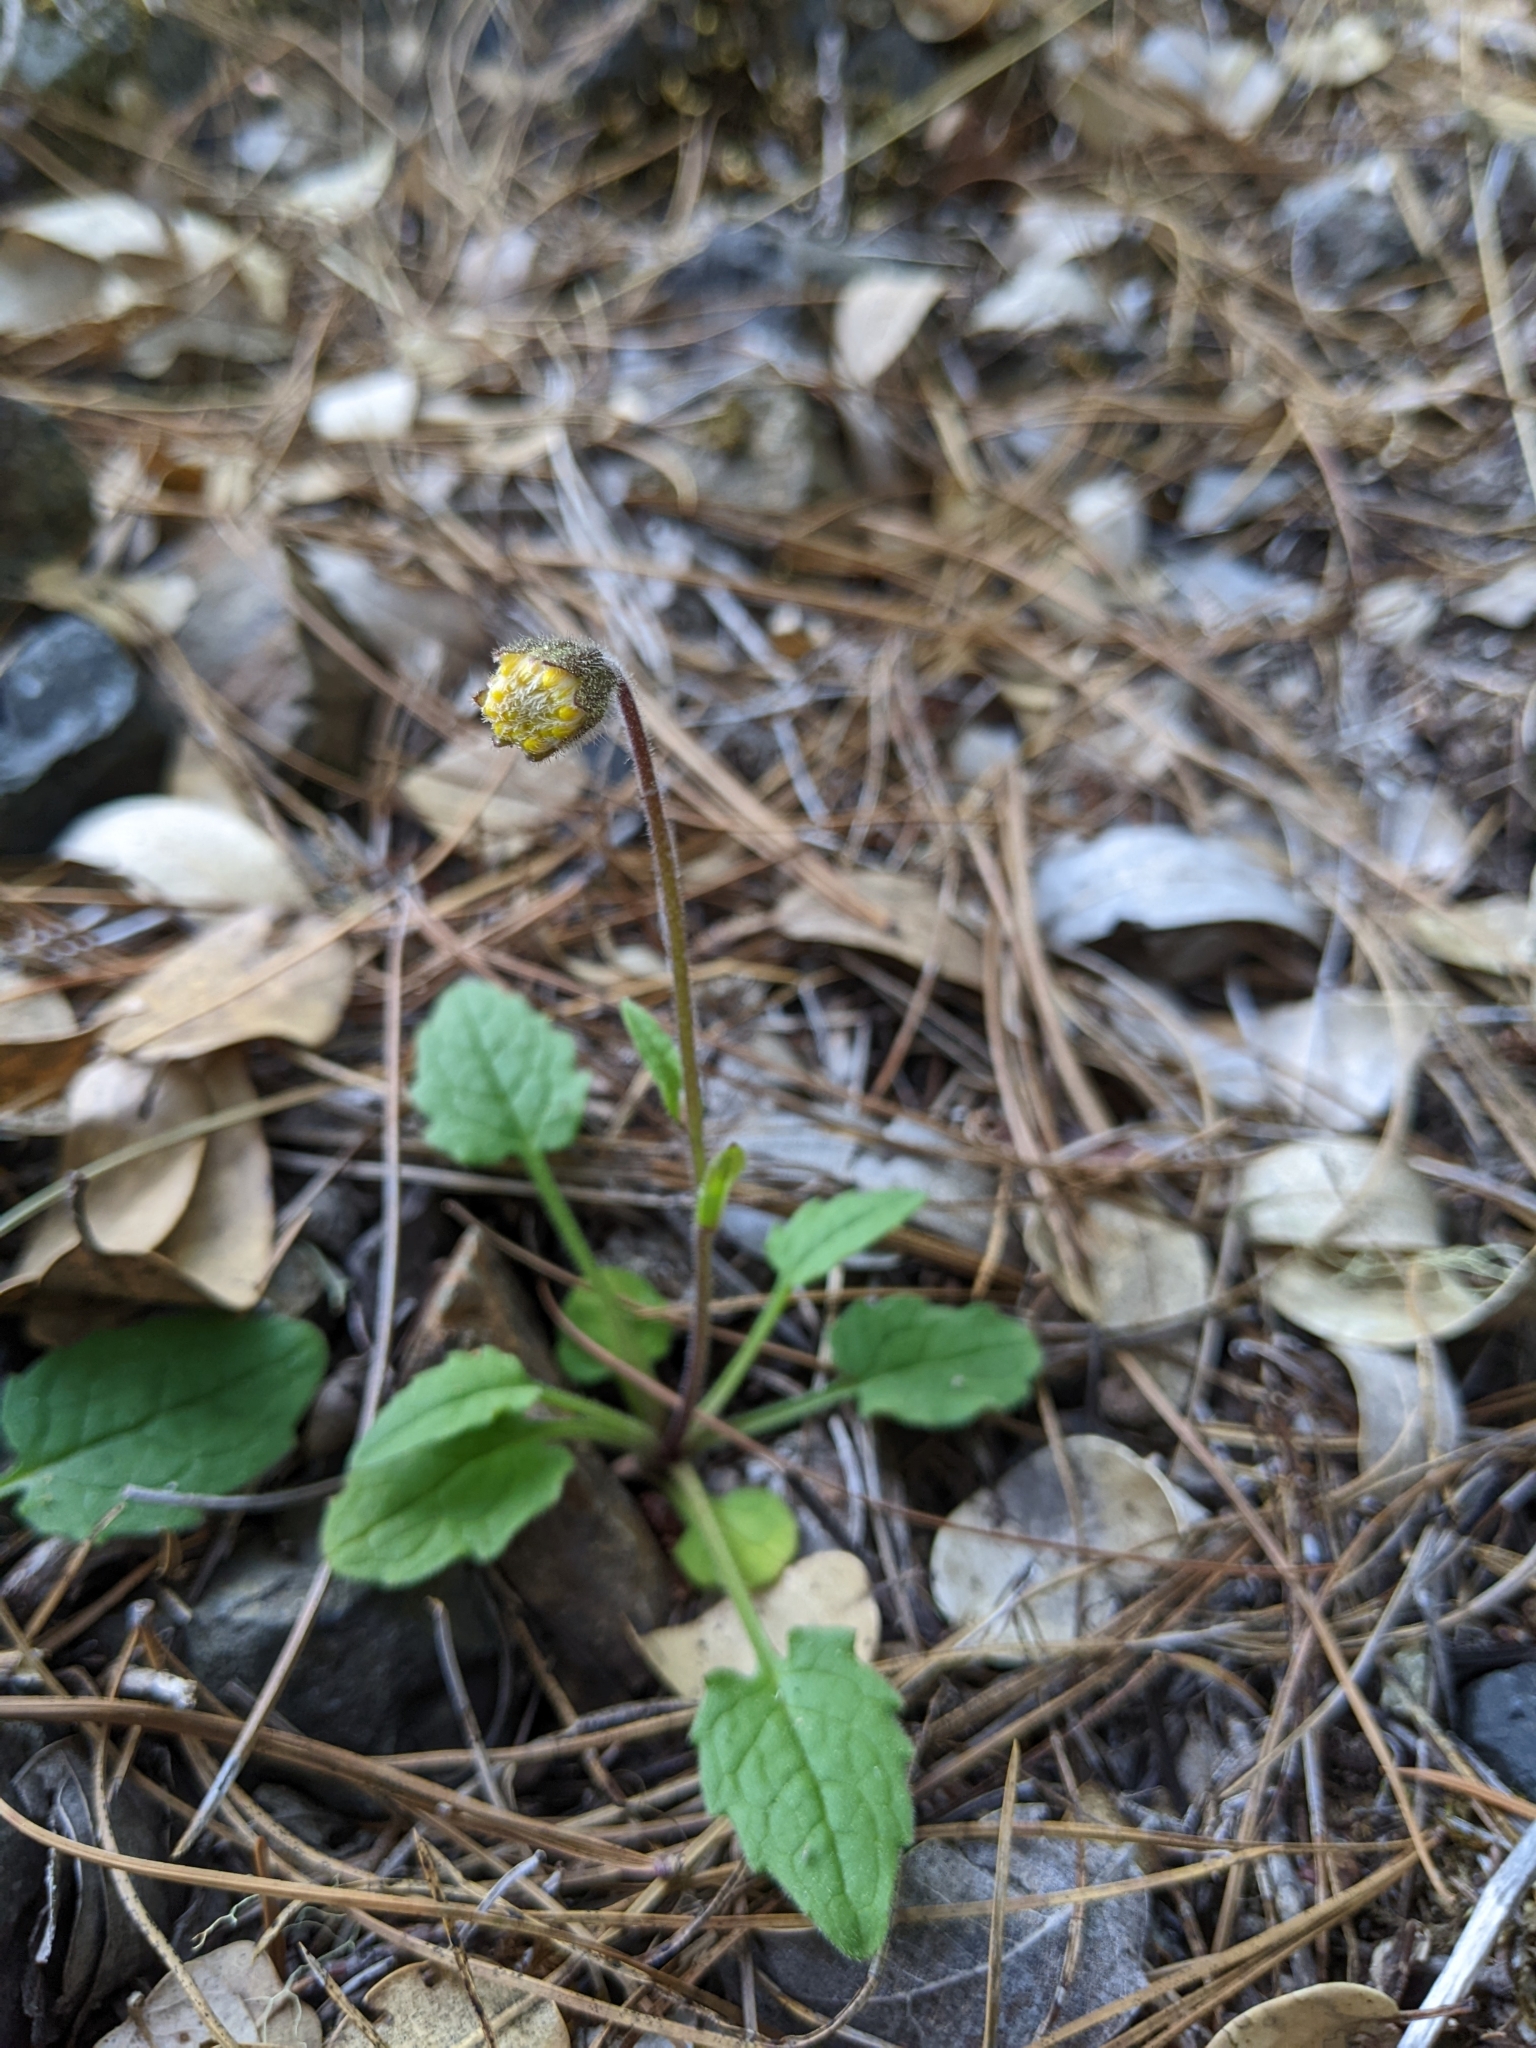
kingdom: Plantae
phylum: Tracheophyta
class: Magnoliopsida
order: Asterales
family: Asteraceae
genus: Arnica
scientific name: Arnica discoidea
